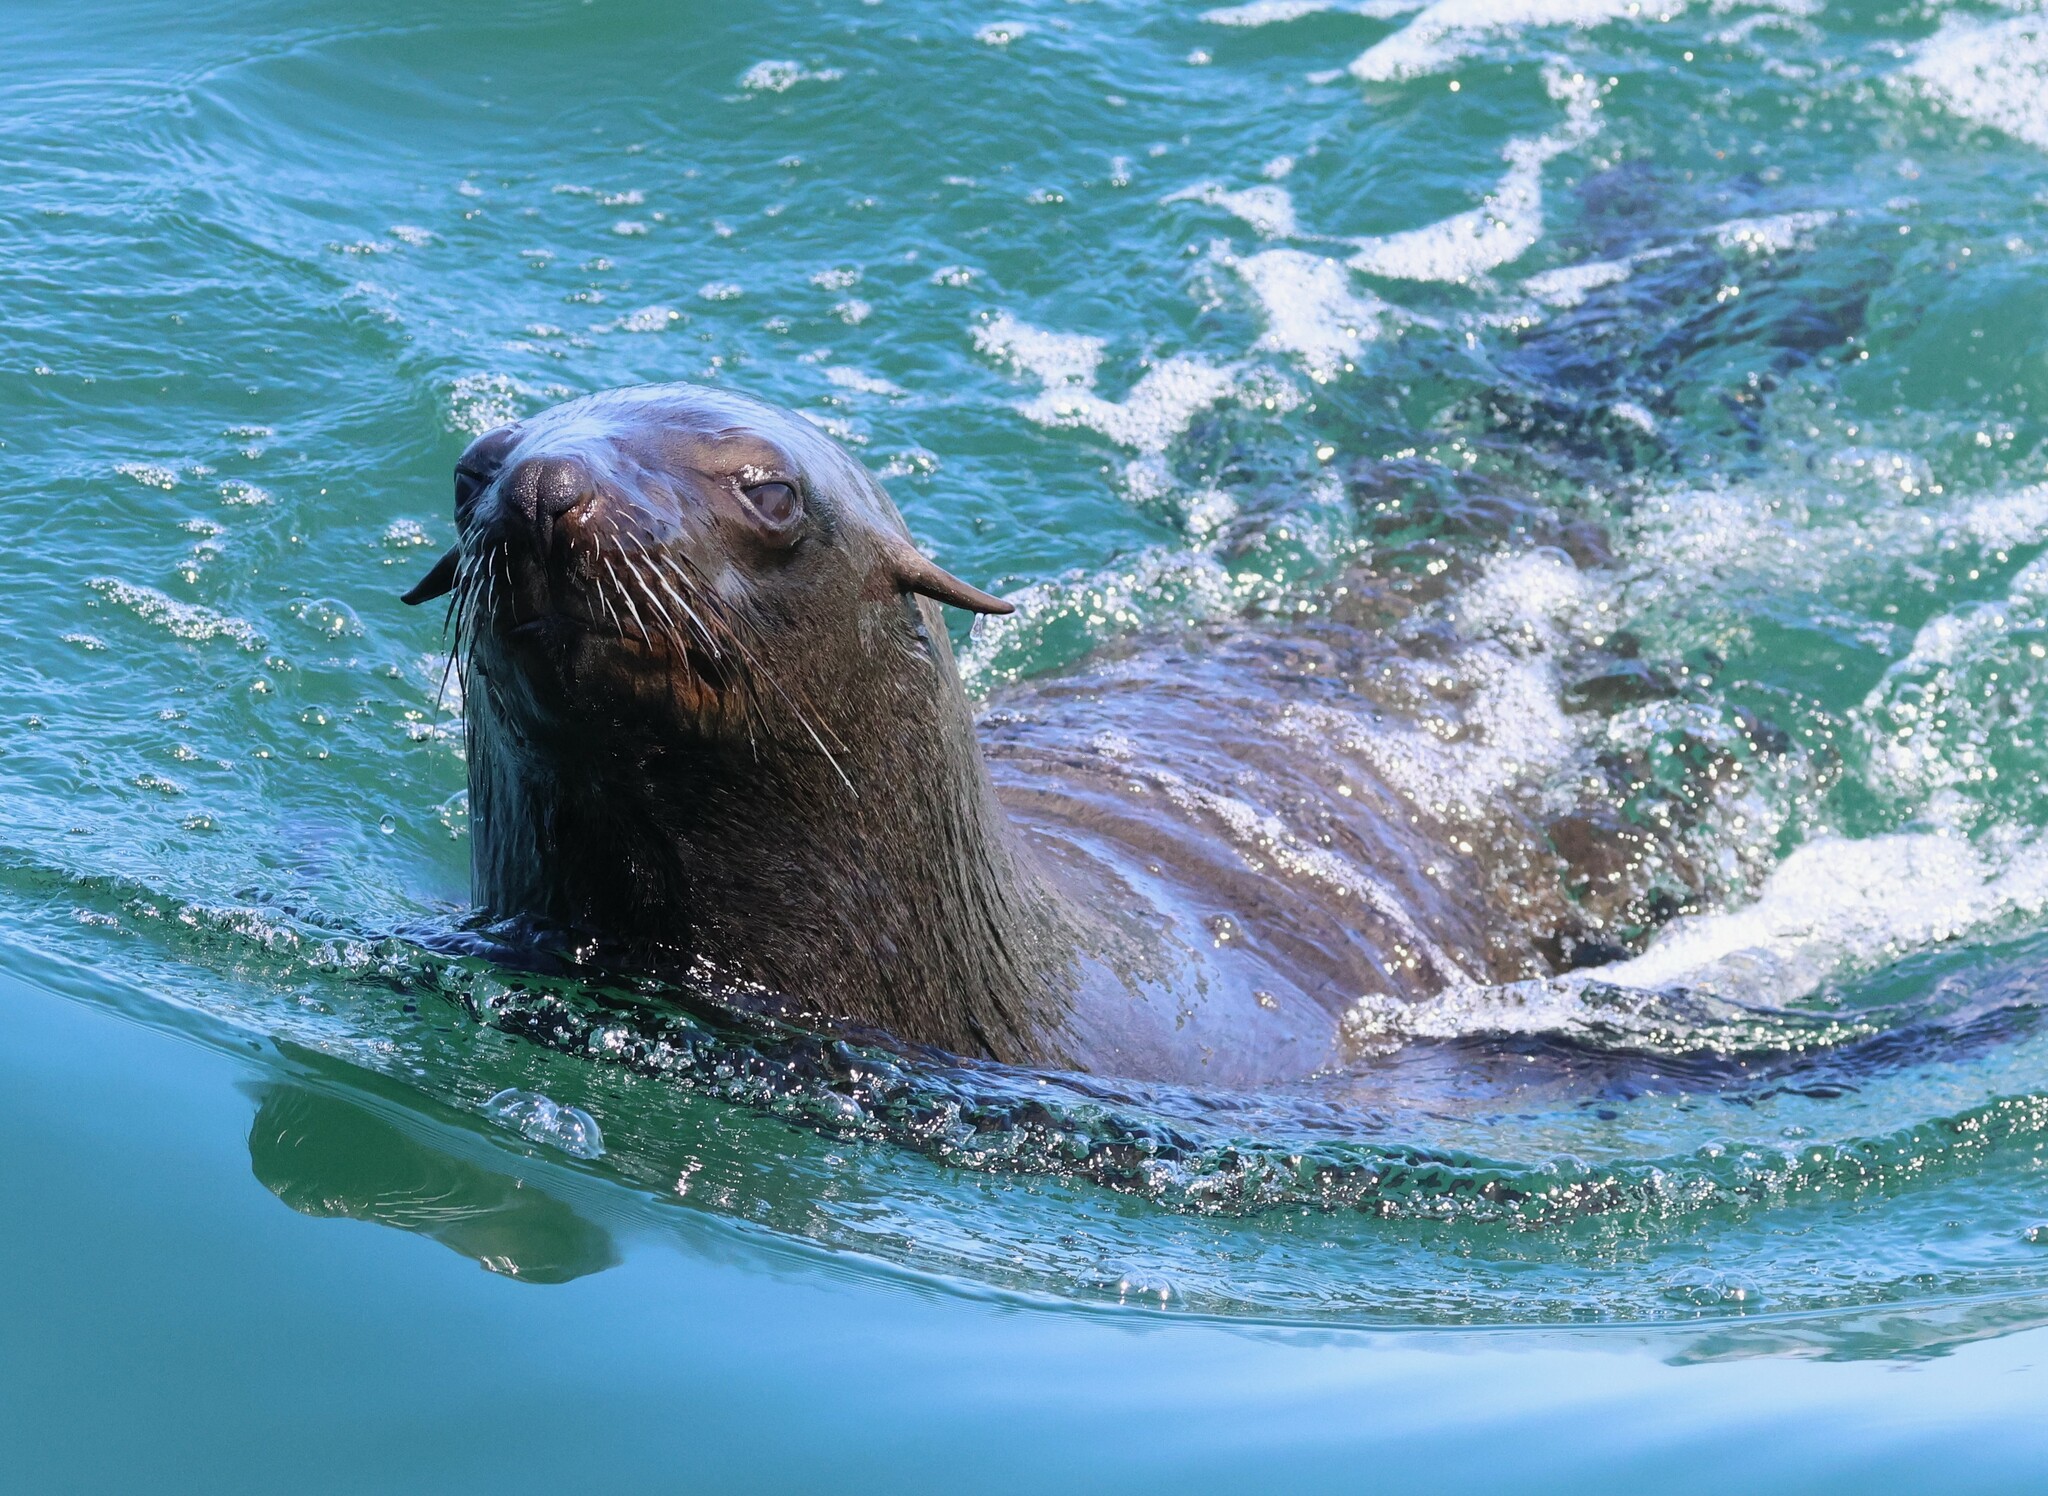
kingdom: Animalia
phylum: Chordata
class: Mammalia
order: Carnivora
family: Otariidae
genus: Arctocephalus
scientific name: Arctocephalus pusillus
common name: Brown fur seal
